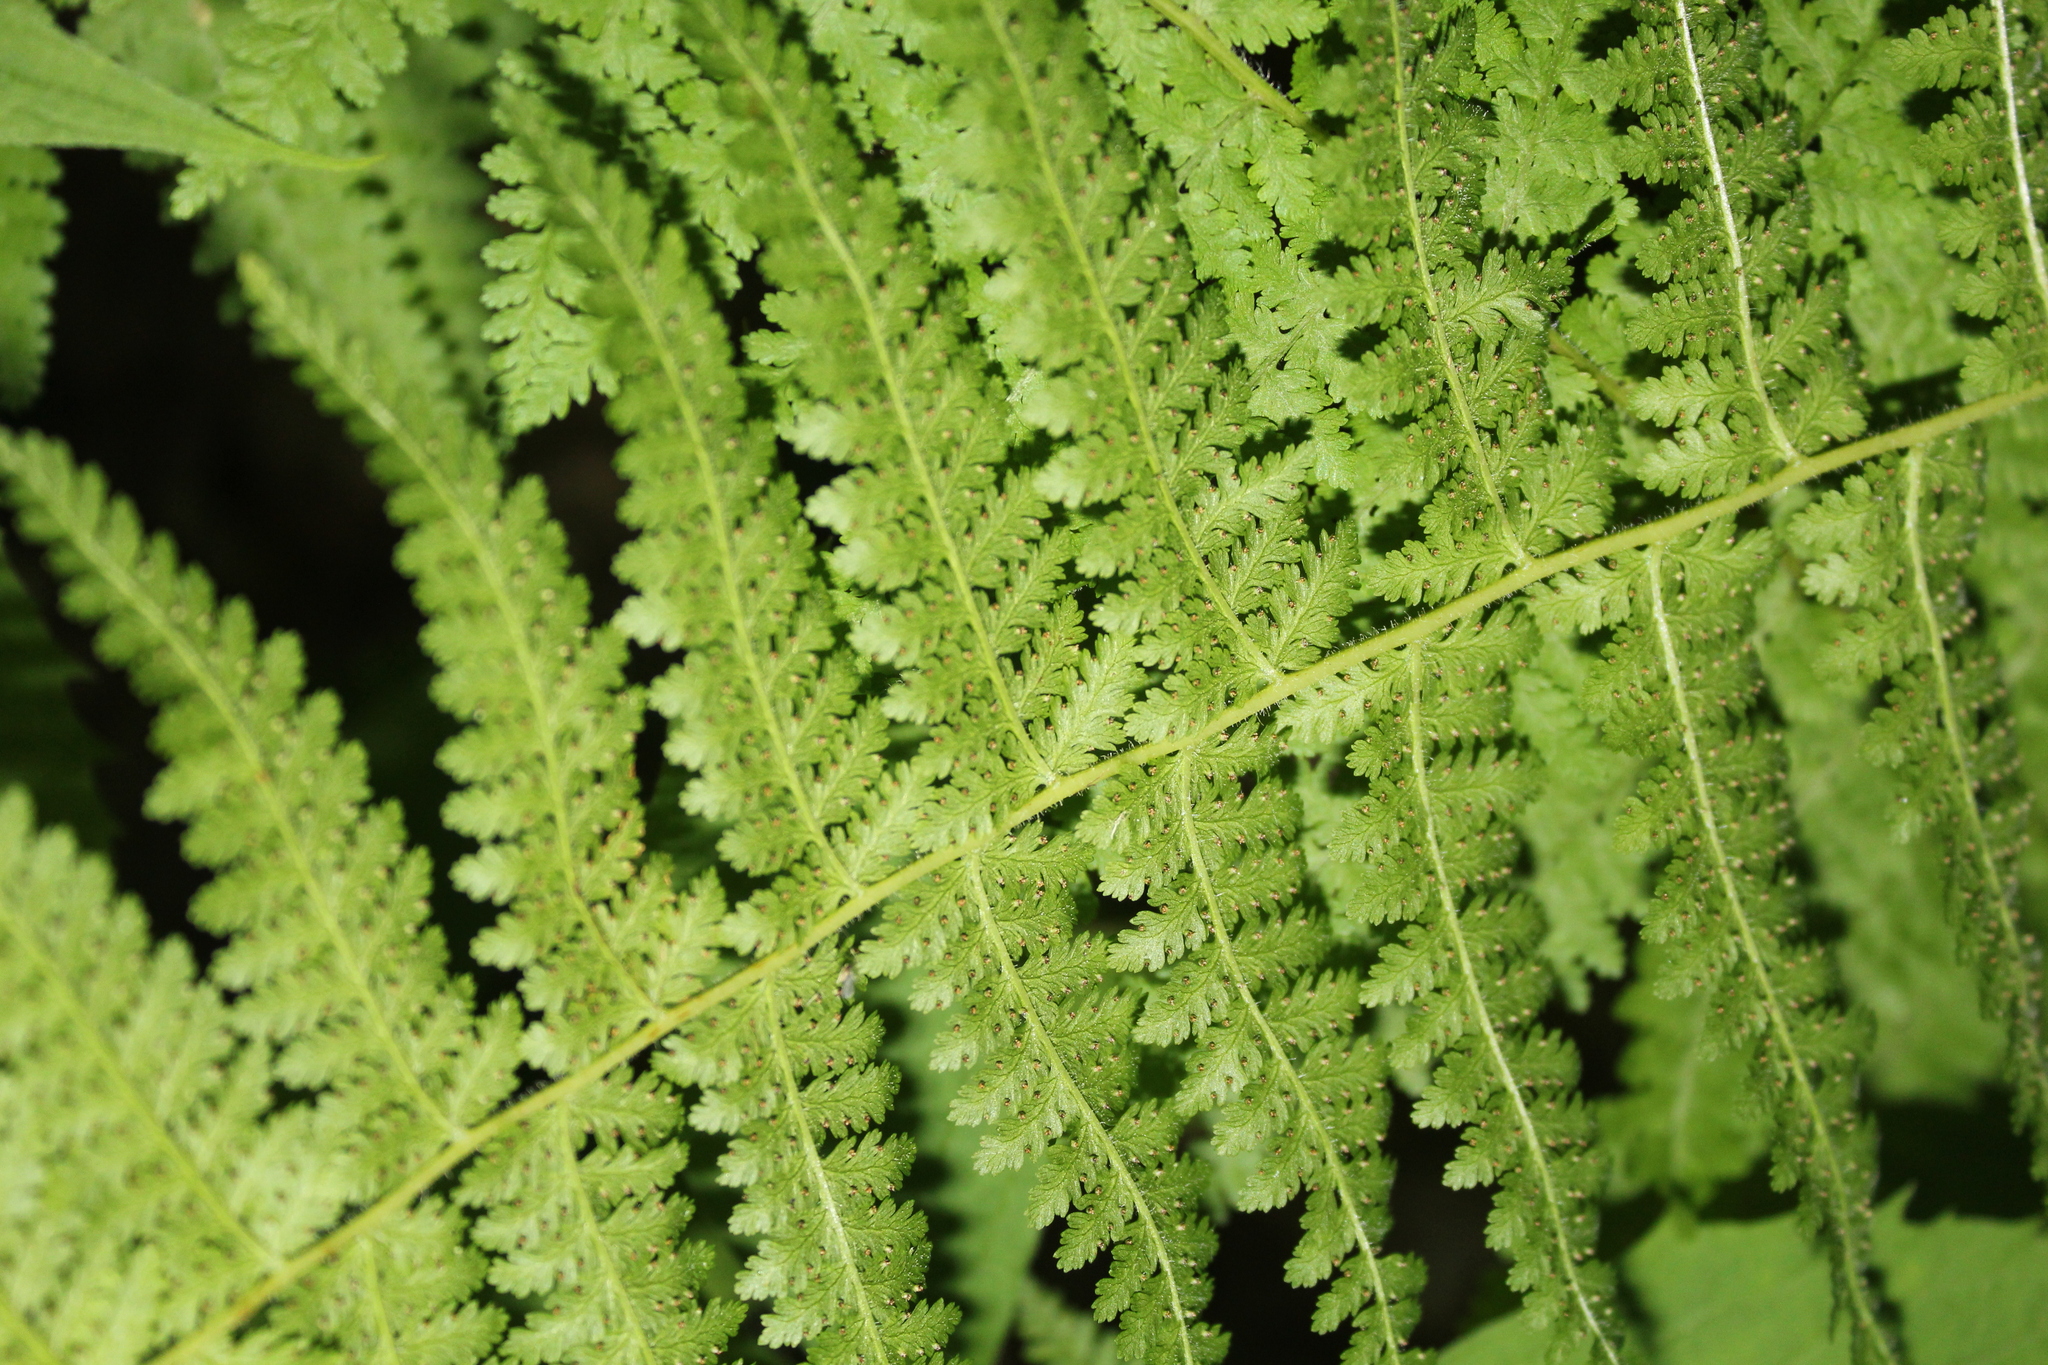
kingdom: Plantae
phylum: Tracheophyta
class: Polypodiopsida
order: Polypodiales
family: Dennstaedtiaceae
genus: Sitobolium
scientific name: Sitobolium punctilobum
